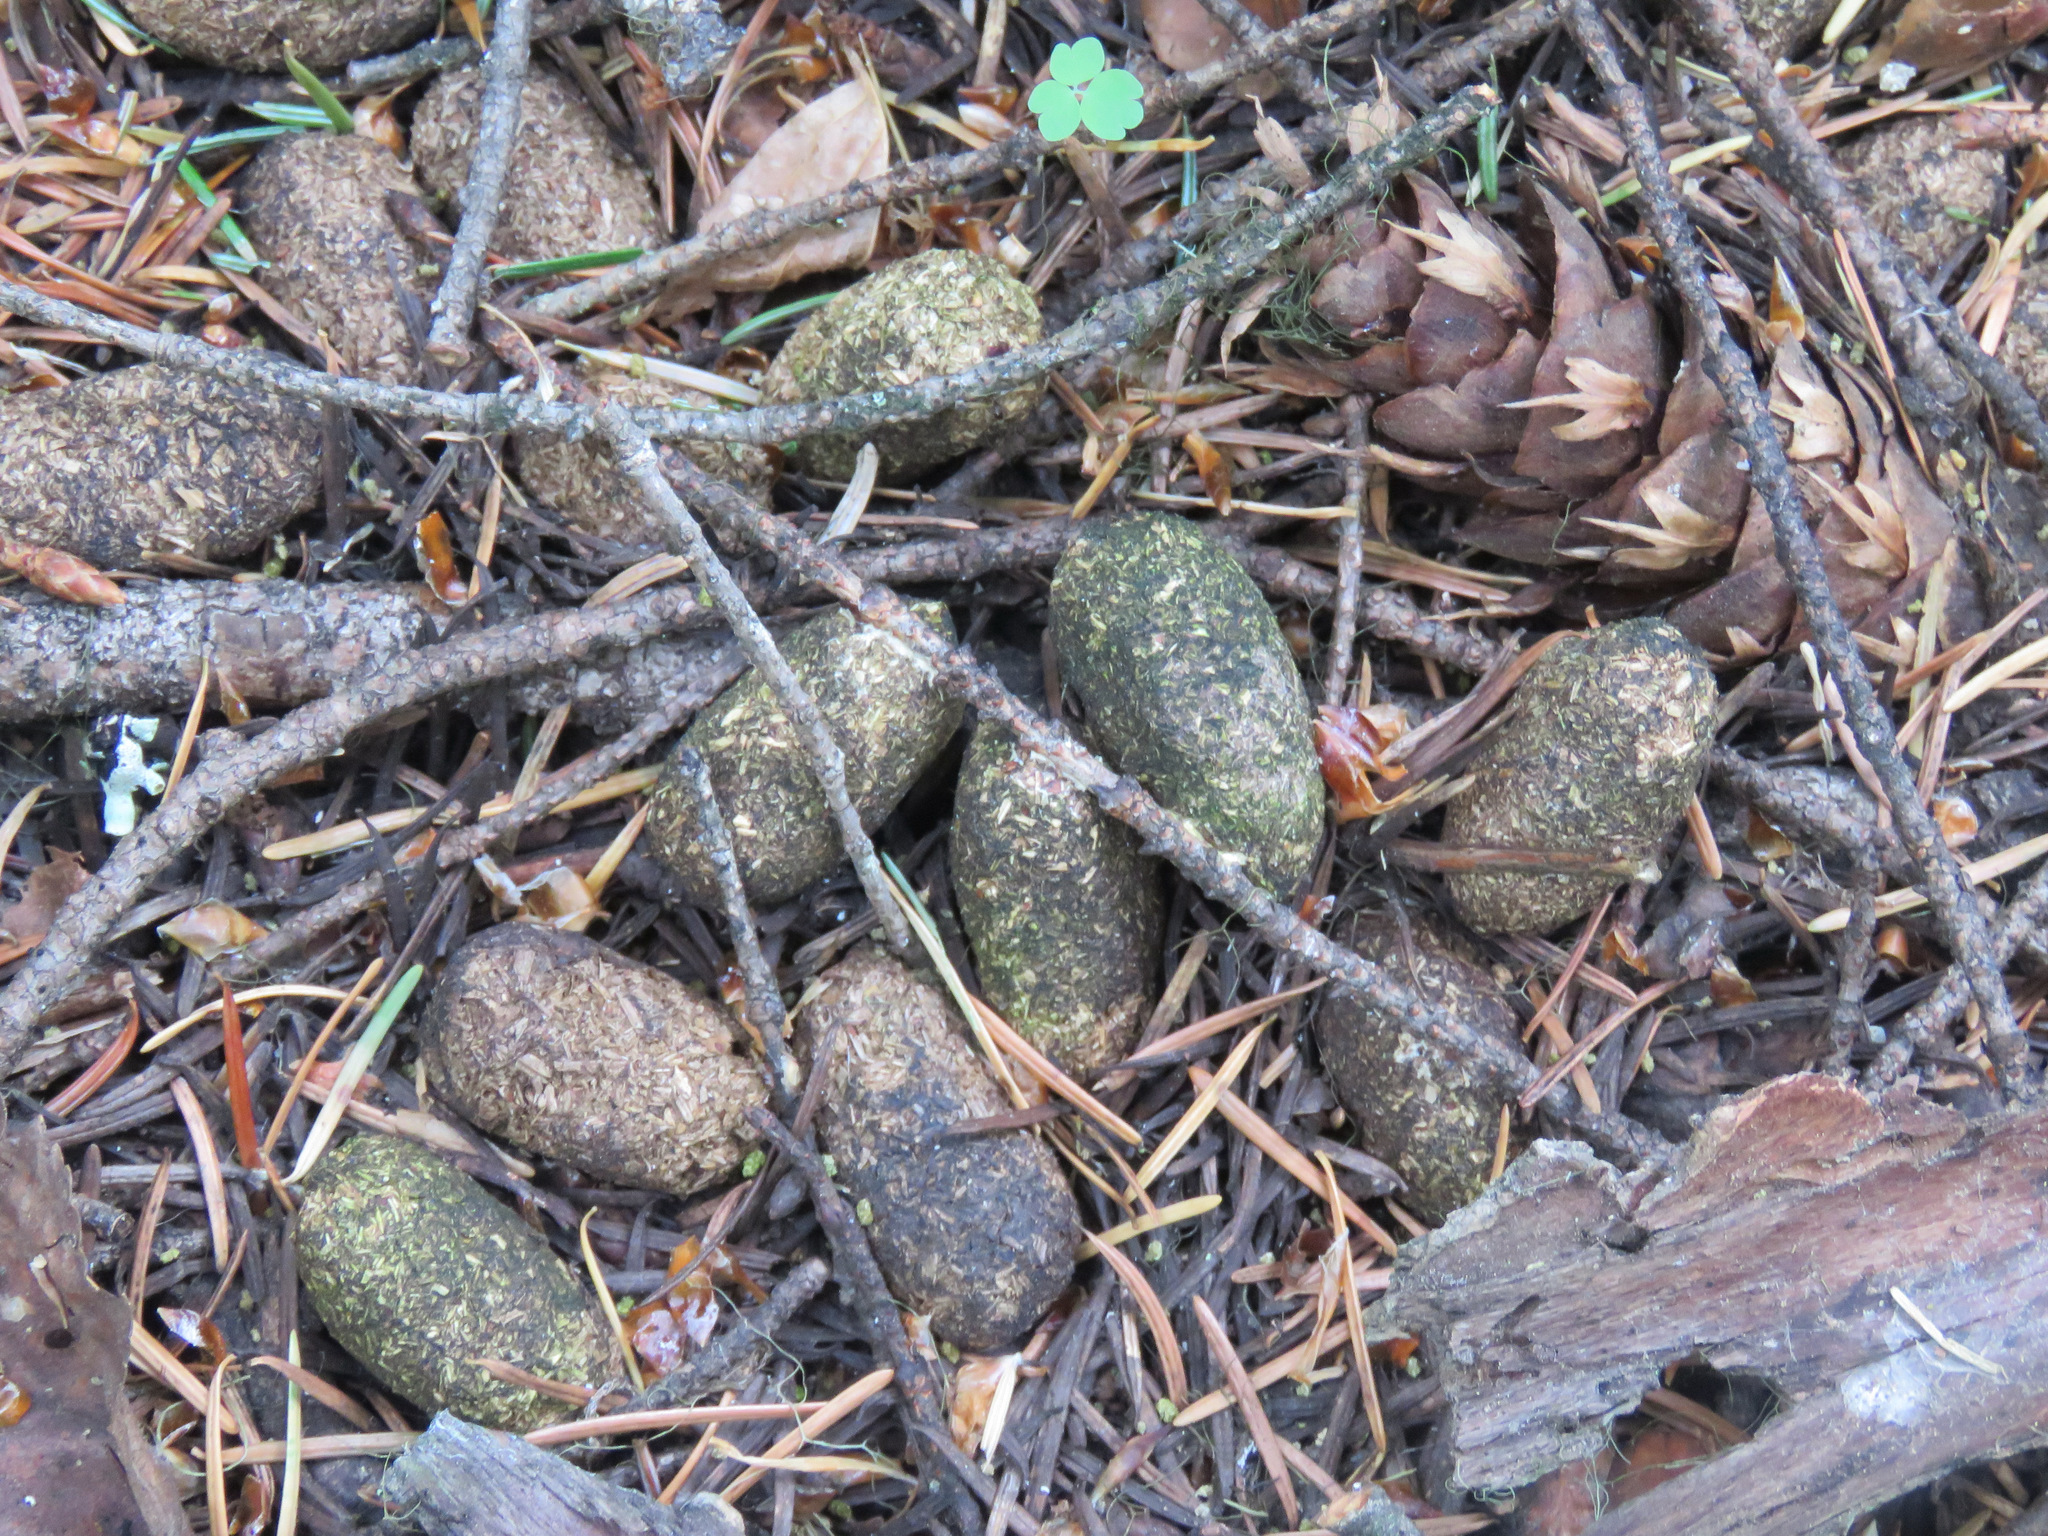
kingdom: Animalia
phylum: Chordata
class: Mammalia
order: Artiodactyla
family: Cervidae
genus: Alces
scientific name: Alces alces
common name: Moose
